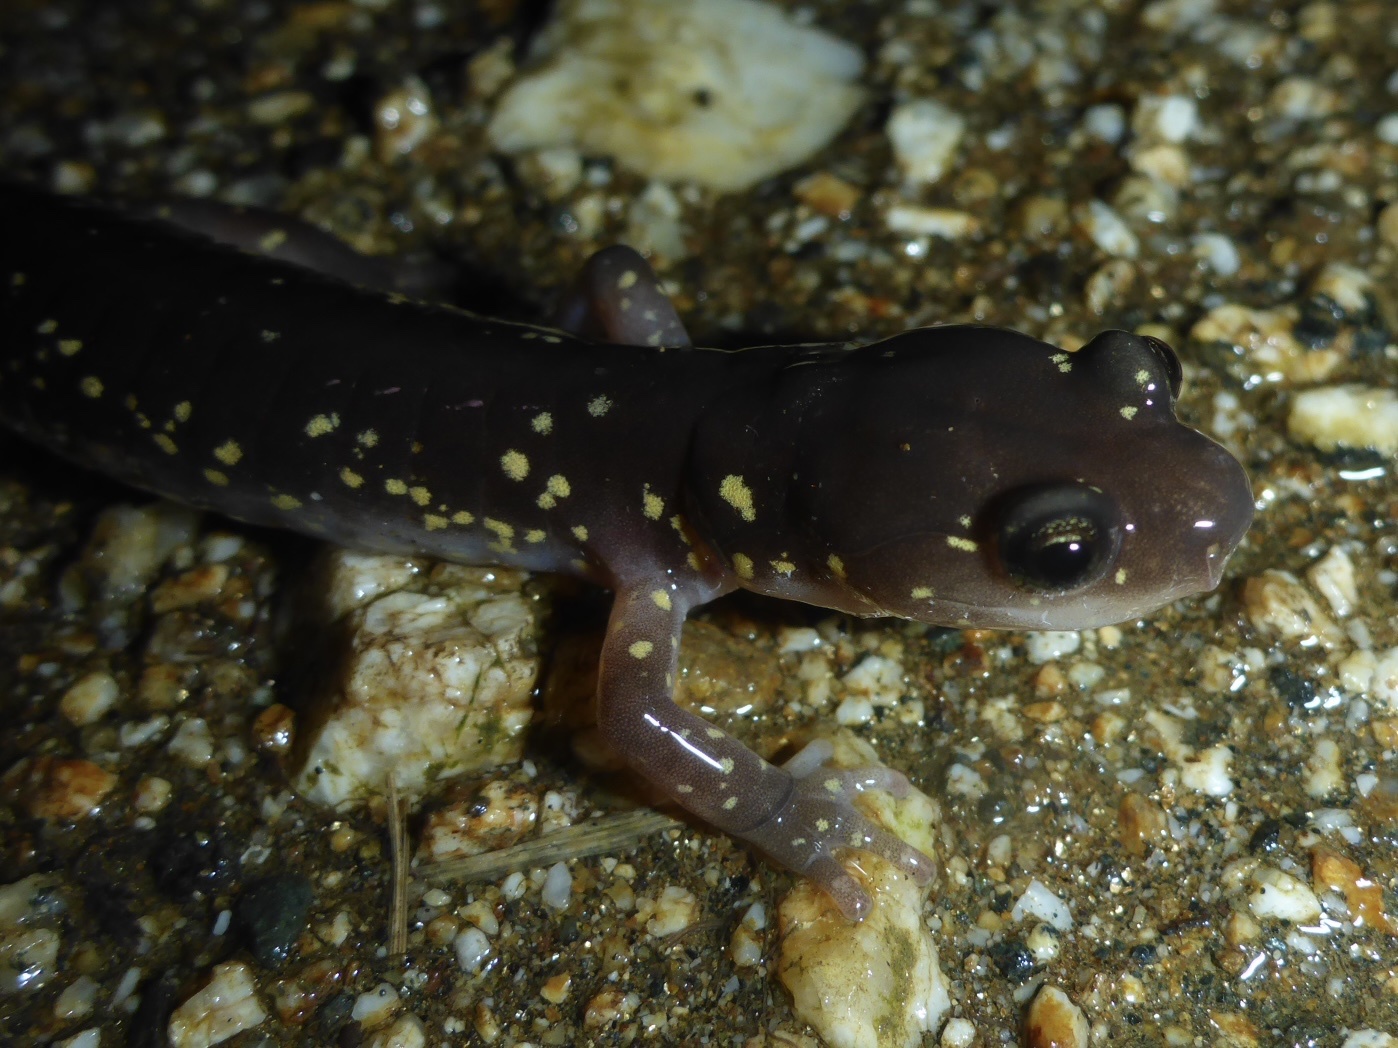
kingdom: Animalia
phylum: Chordata
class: Amphibia
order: Caudata
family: Plethodontidae
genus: Aneides
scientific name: Aneides lugubris
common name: Arboreal salamander
